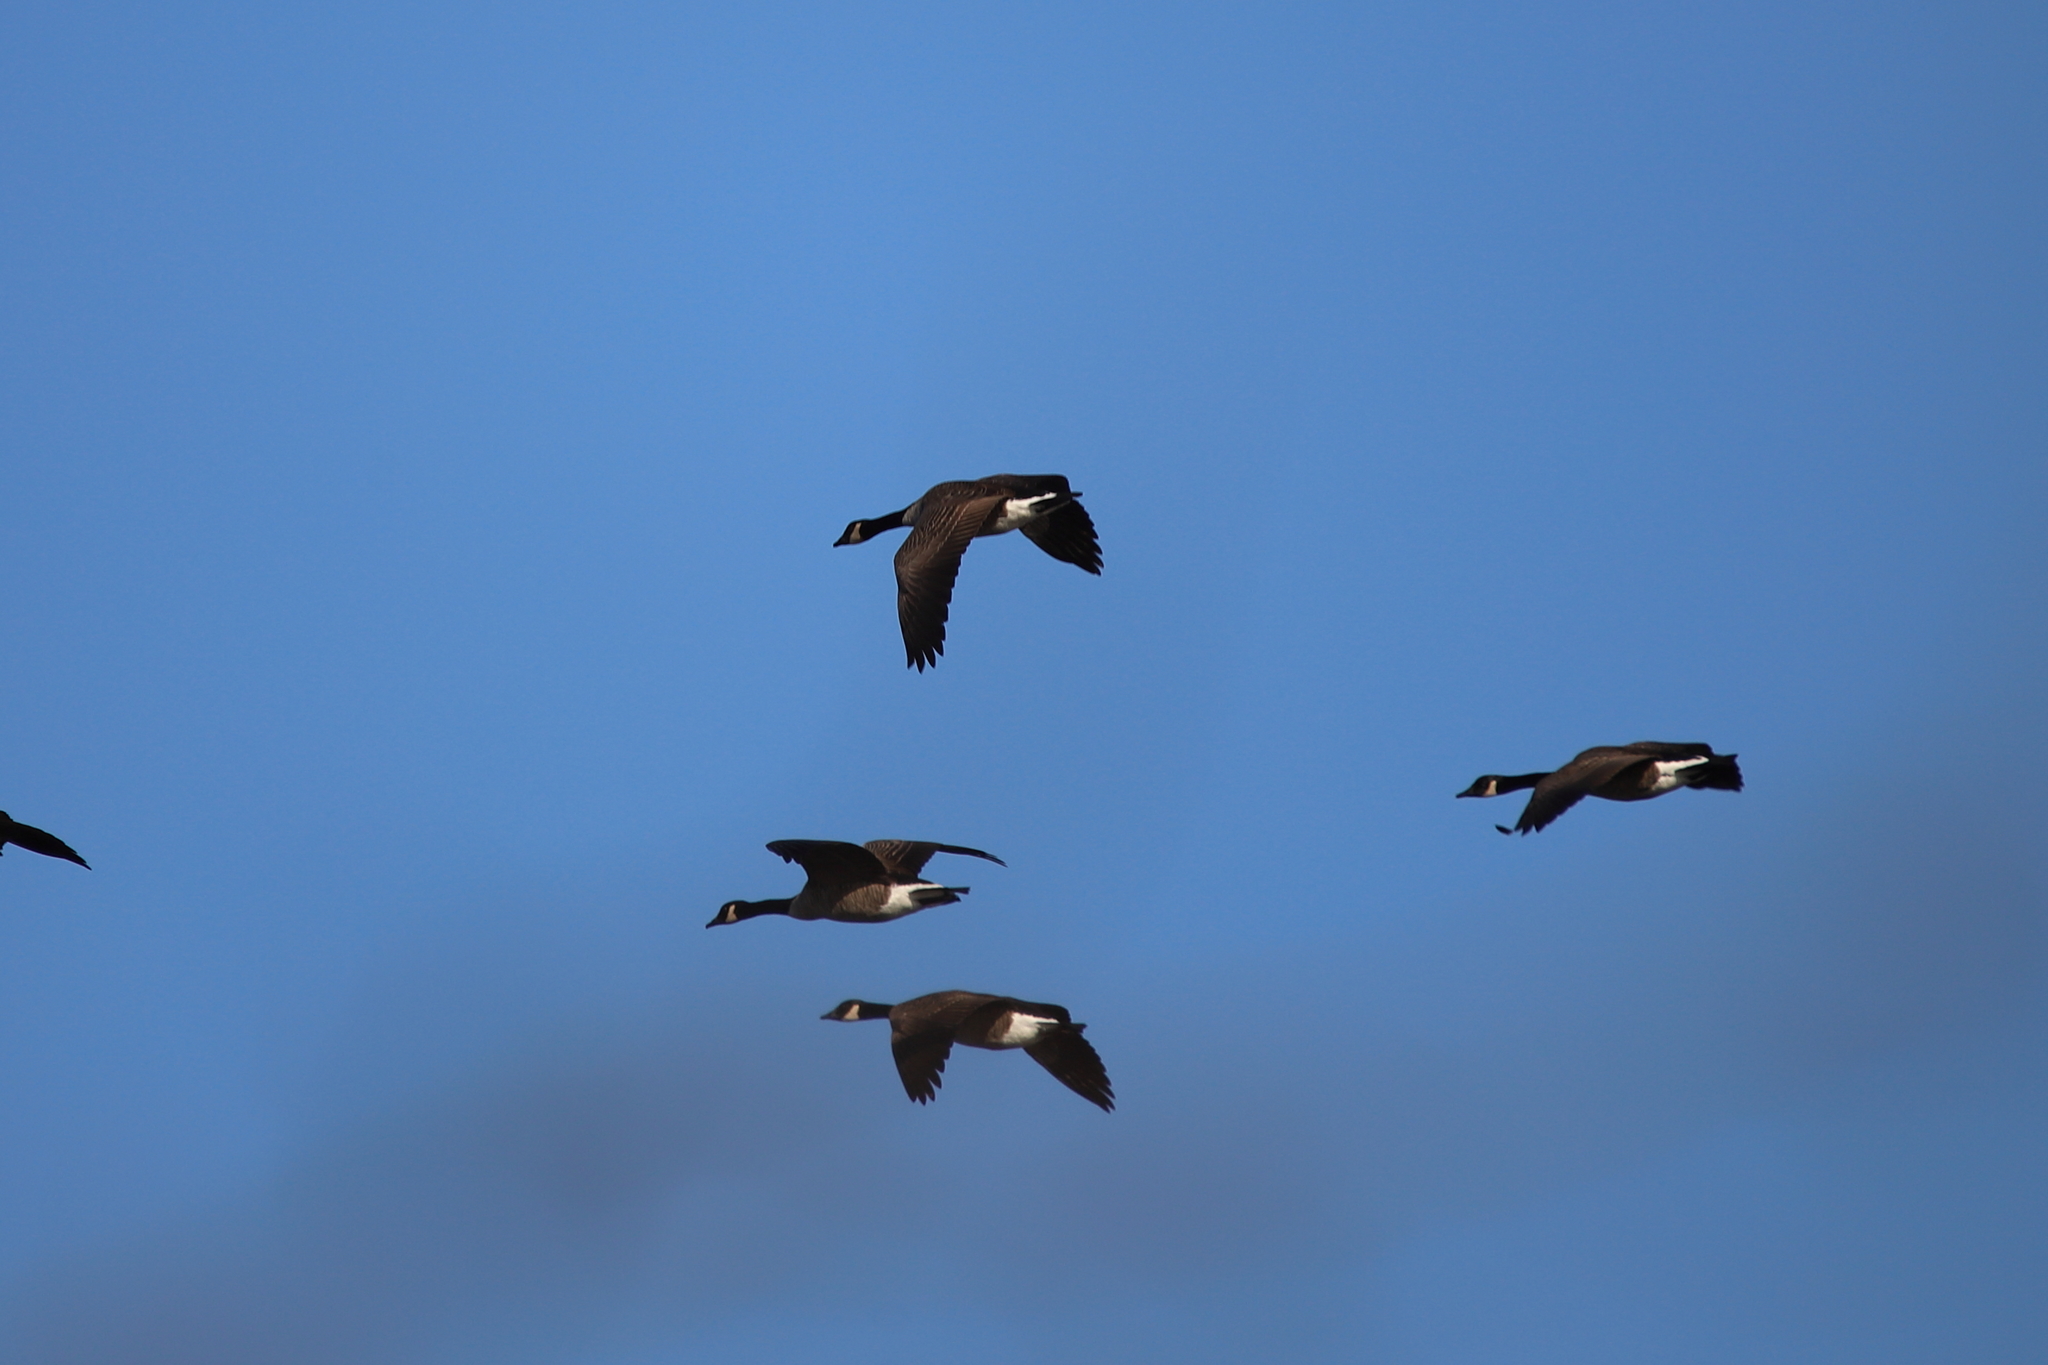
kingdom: Animalia
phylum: Chordata
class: Aves
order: Anseriformes
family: Anatidae
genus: Branta
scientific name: Branta canadensis
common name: Canada goose
